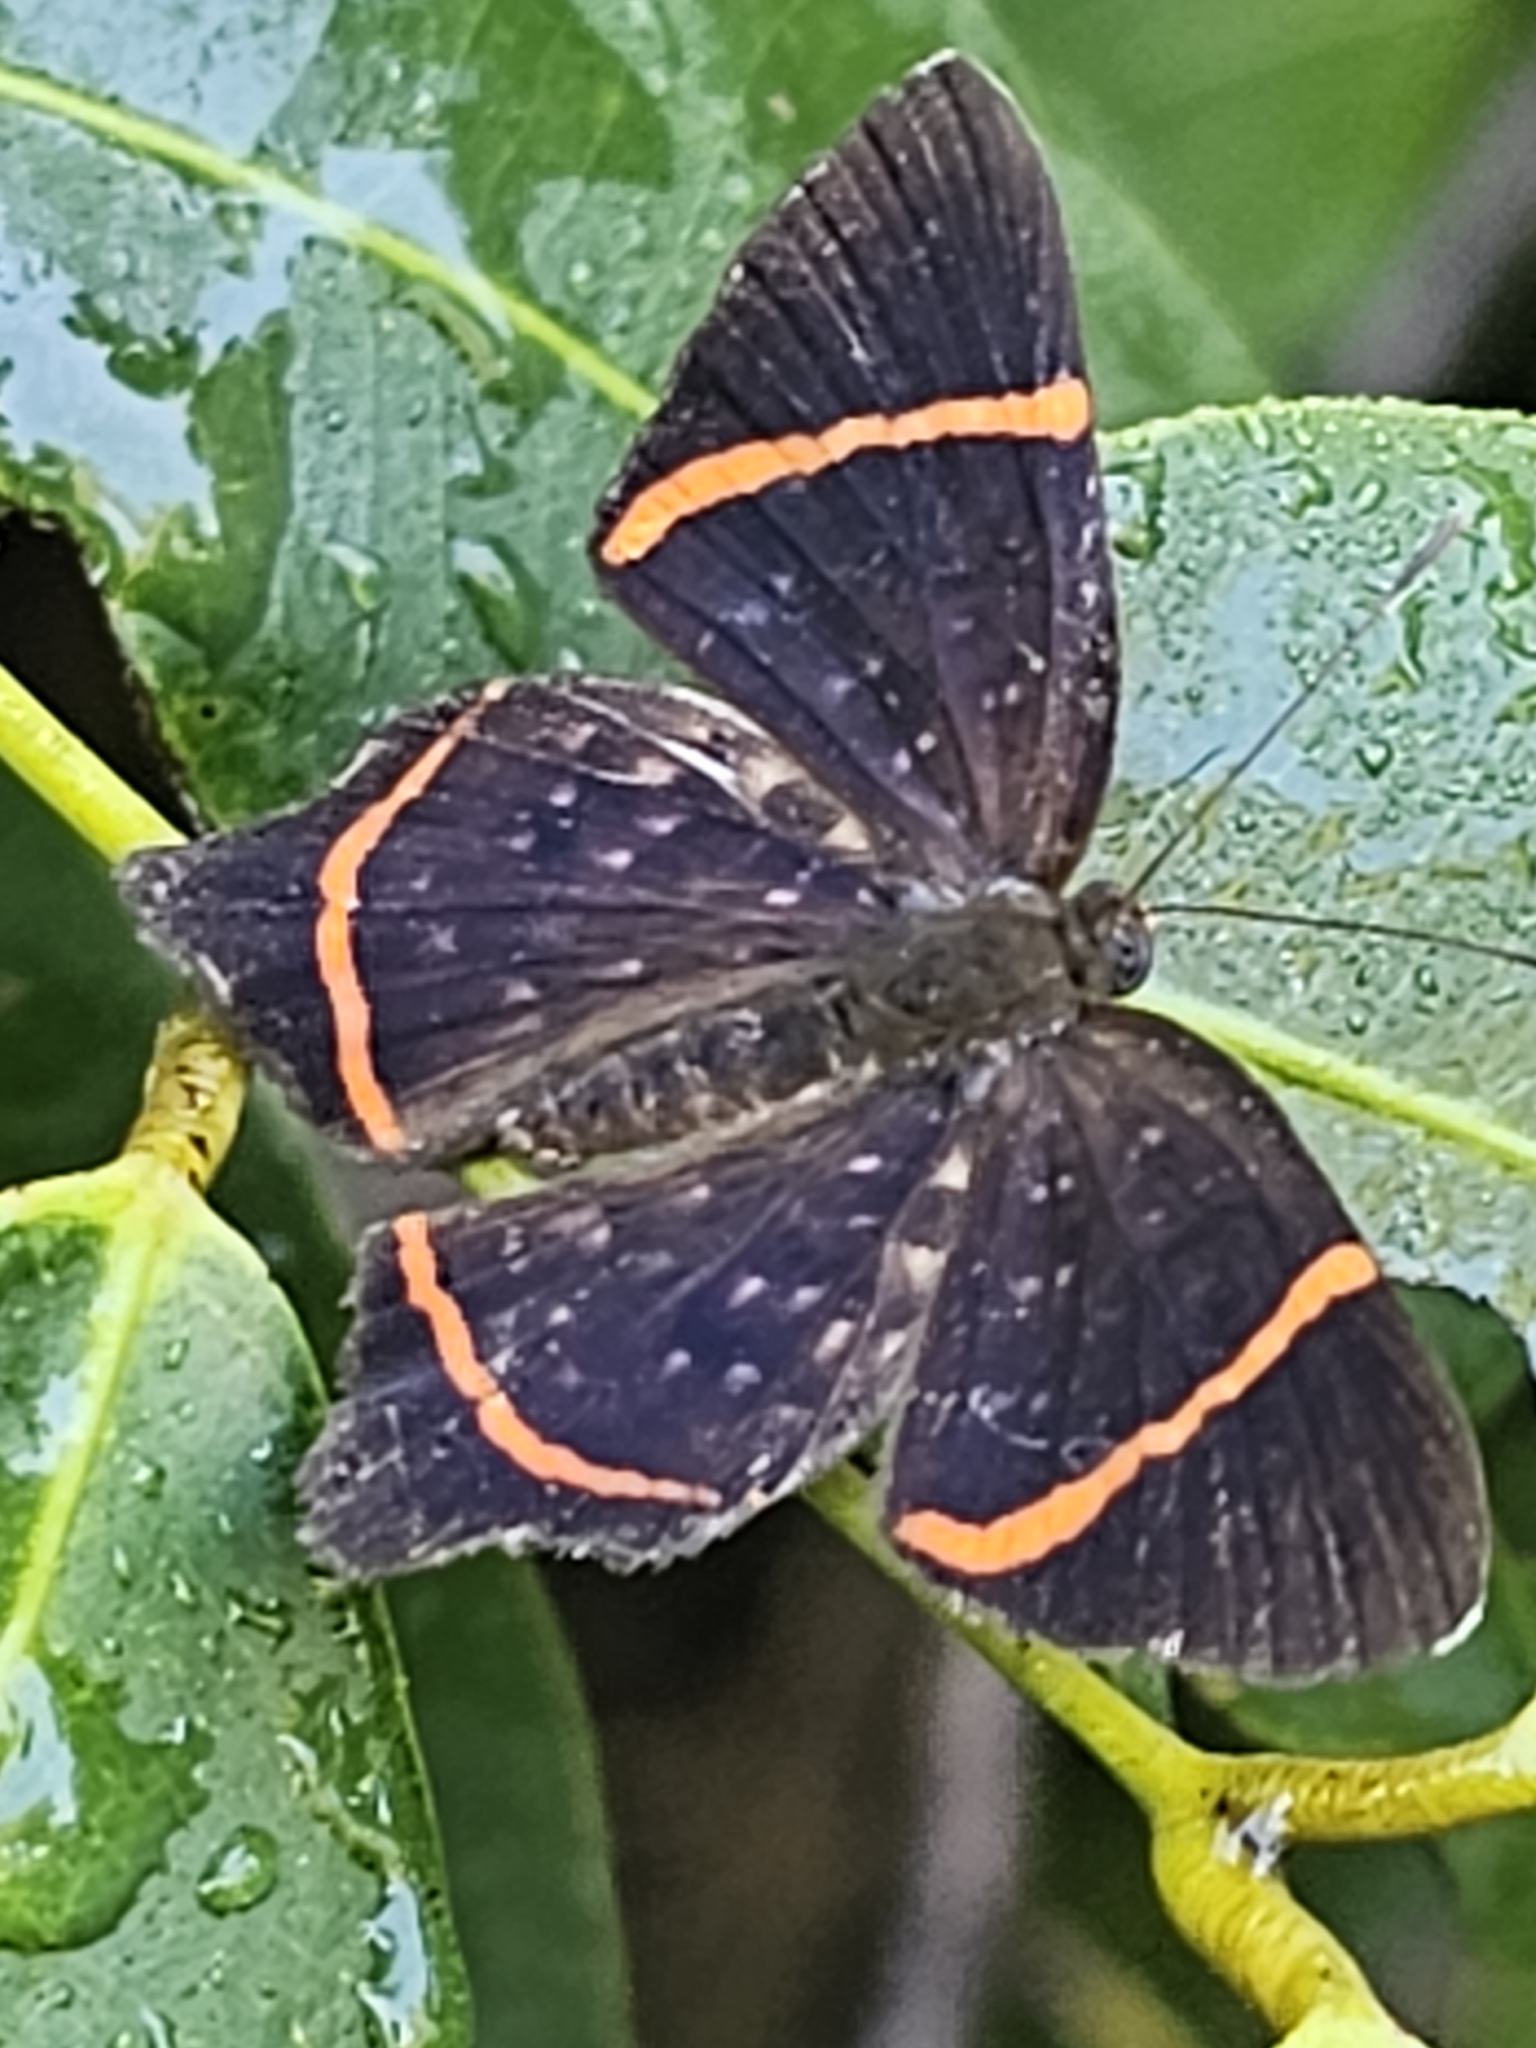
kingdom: Animalia
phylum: Arthropoda
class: Insecta
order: Lepidoptera
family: Riodinidae
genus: Riodina
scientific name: Riodina lysippus
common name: Lysippus metalmark
